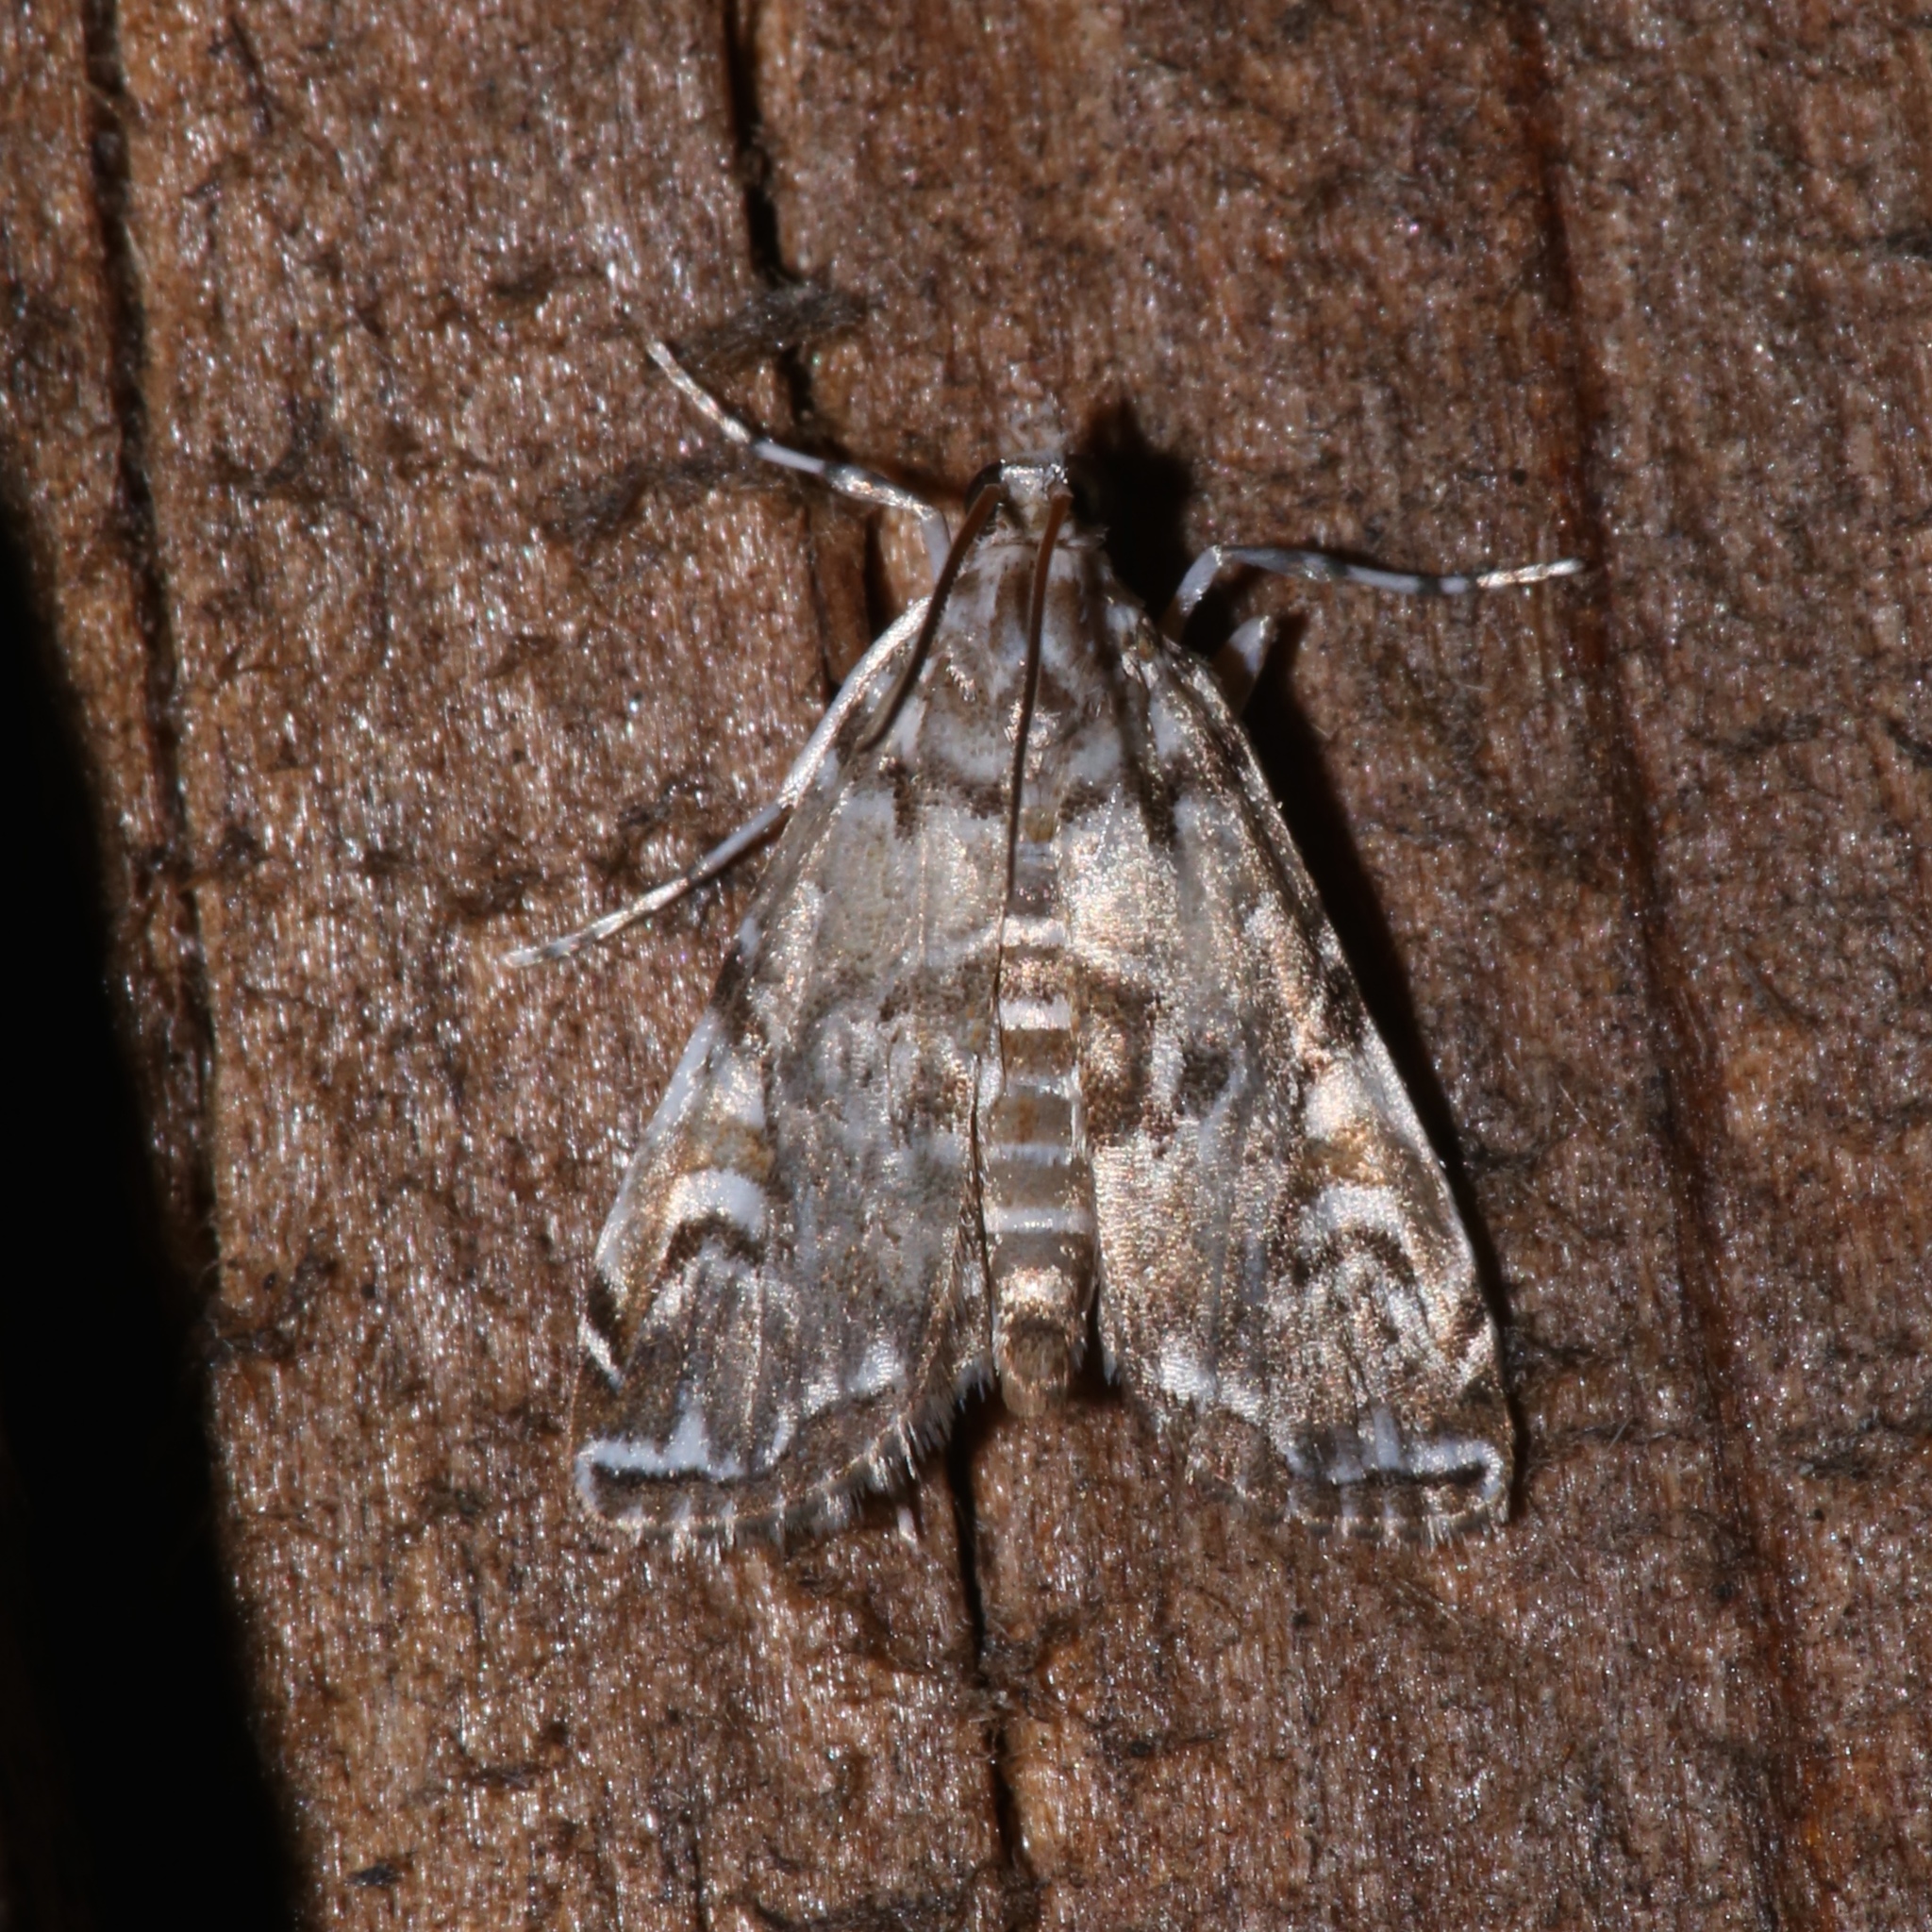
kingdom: Animalia
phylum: Arthropoda
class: Insecta
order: Lepidoptera
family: Crambidae
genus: Elophila
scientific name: Elophila gyralis
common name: Waterlily borer moth
